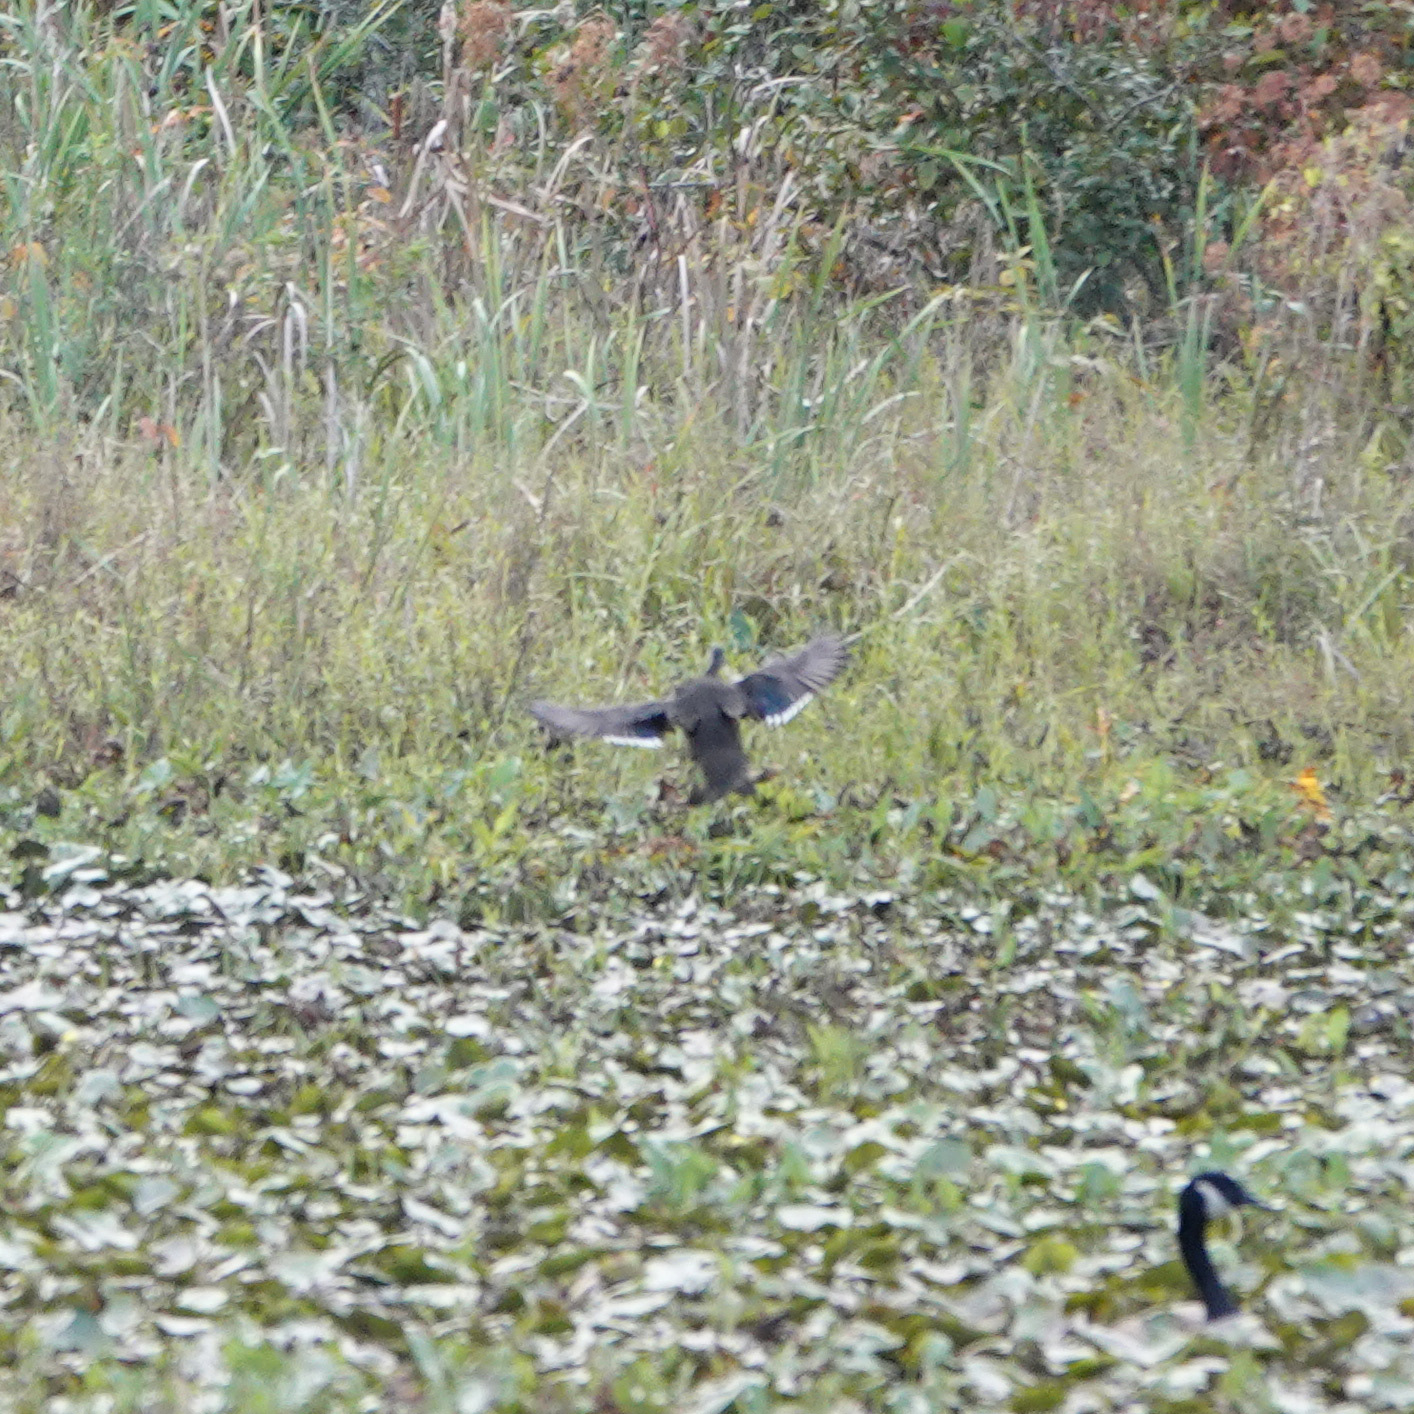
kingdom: Animalia
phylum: Chordata
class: Aves
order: Anseriformes
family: Anatidae
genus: Aix
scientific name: Aix sponsa
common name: Wood duck
